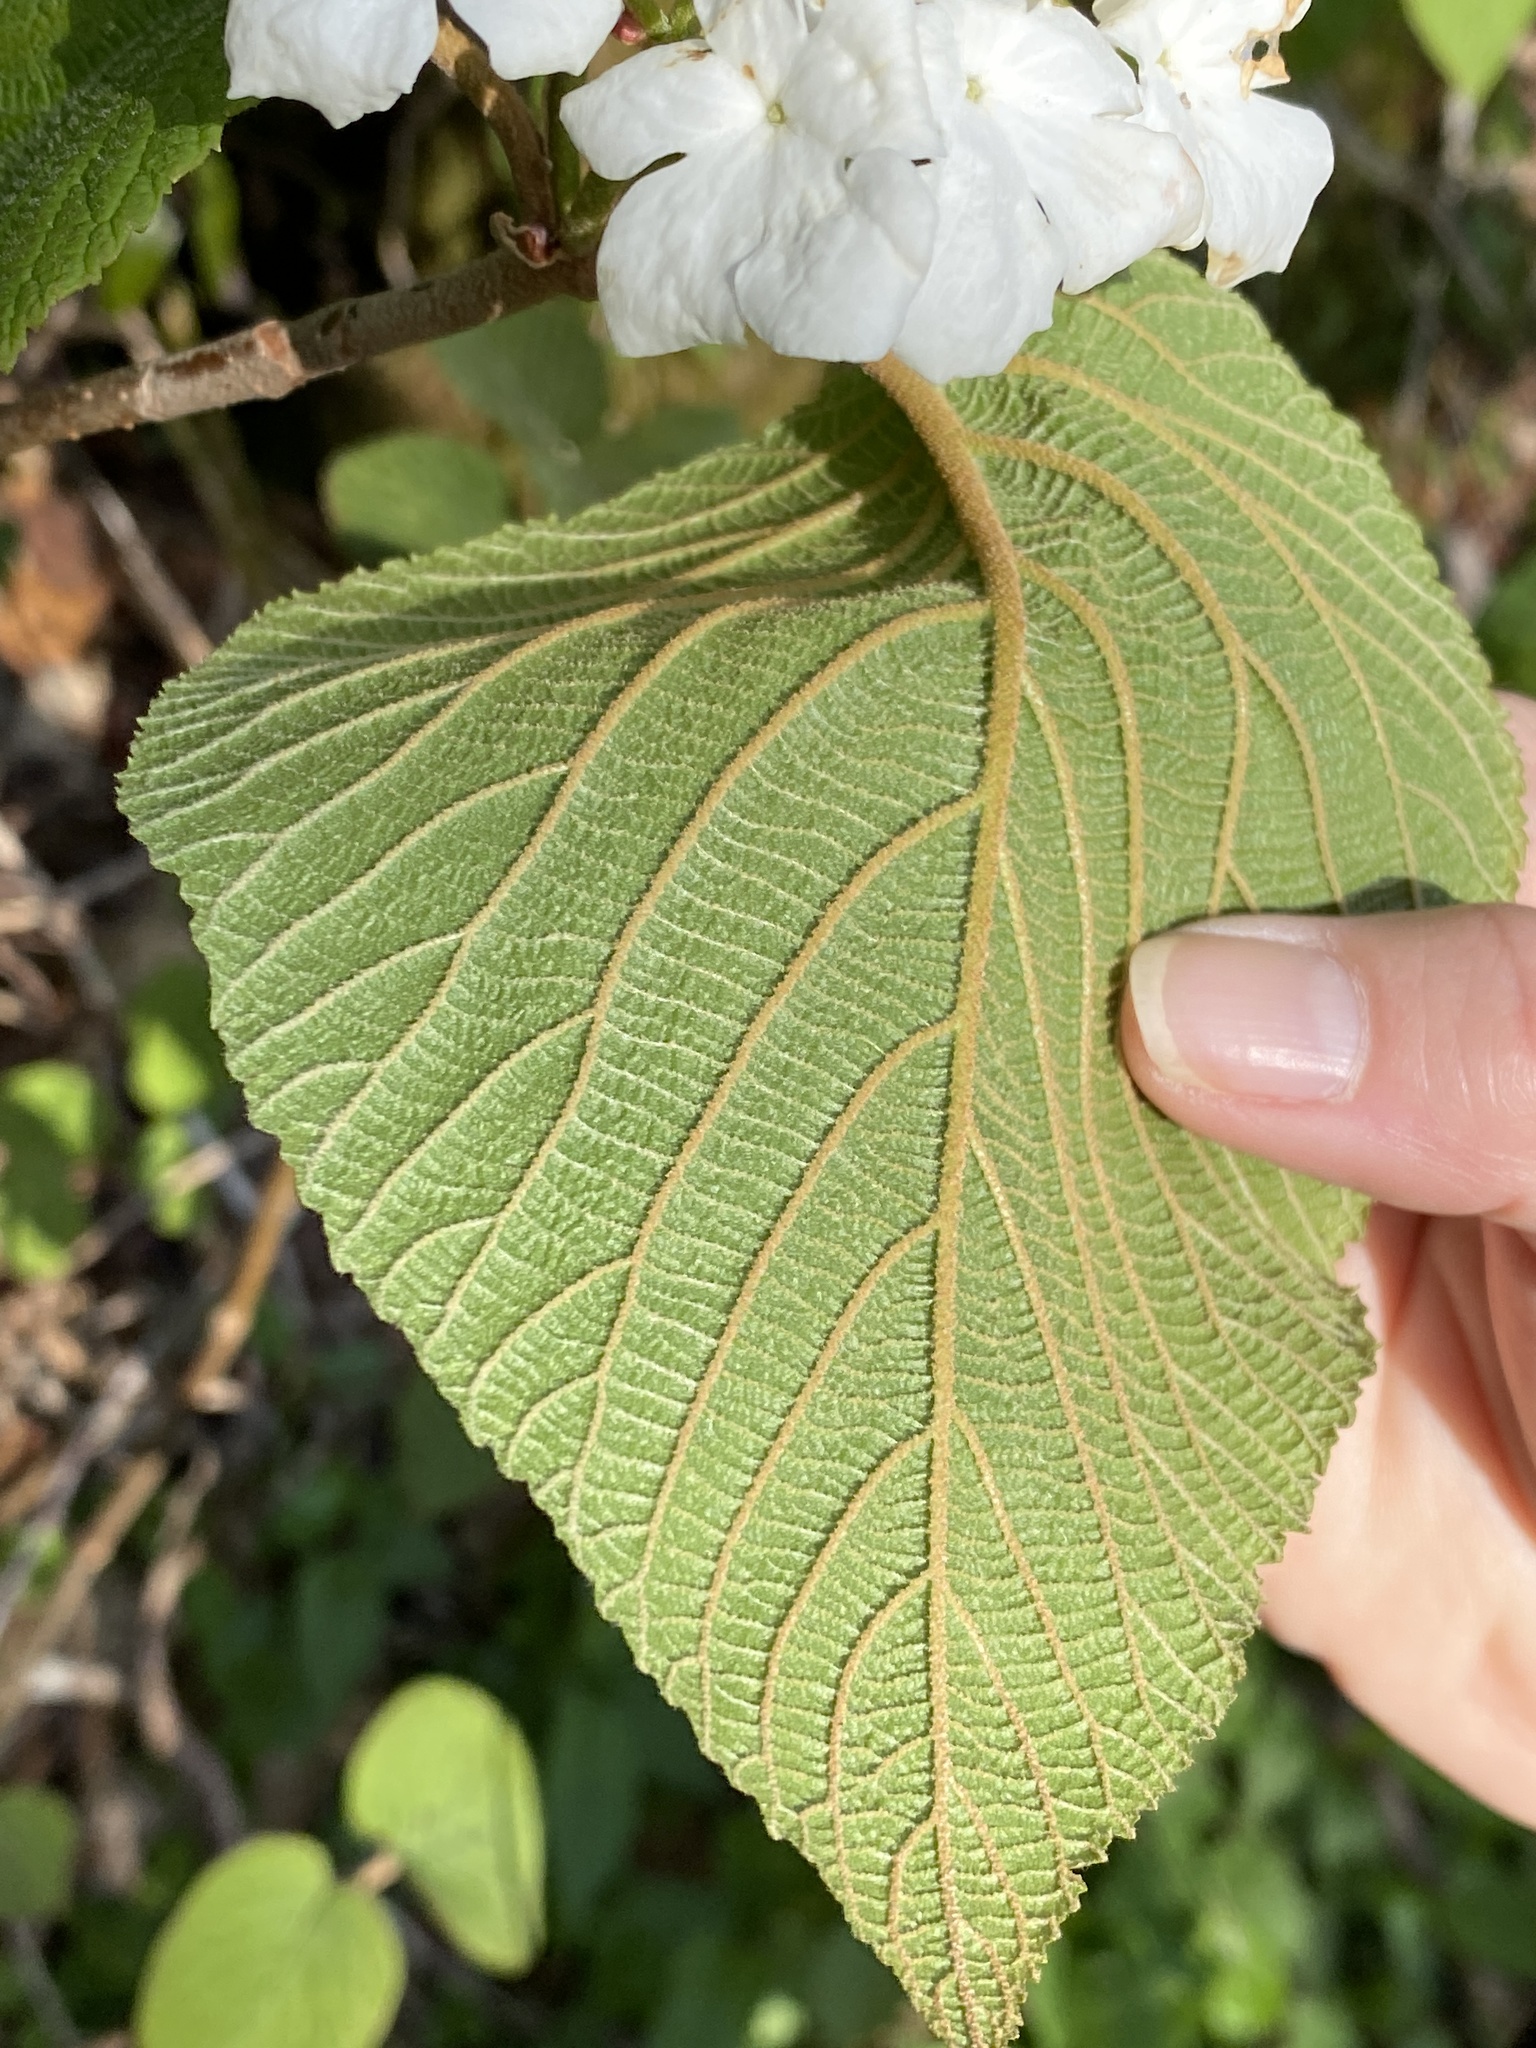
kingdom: Plantae
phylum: Tracheophyta
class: Magnoliopsida
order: Dipsacales
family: Viburnaceae
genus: Viburnum
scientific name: Viburnum lantanoides
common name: Hobblebush
